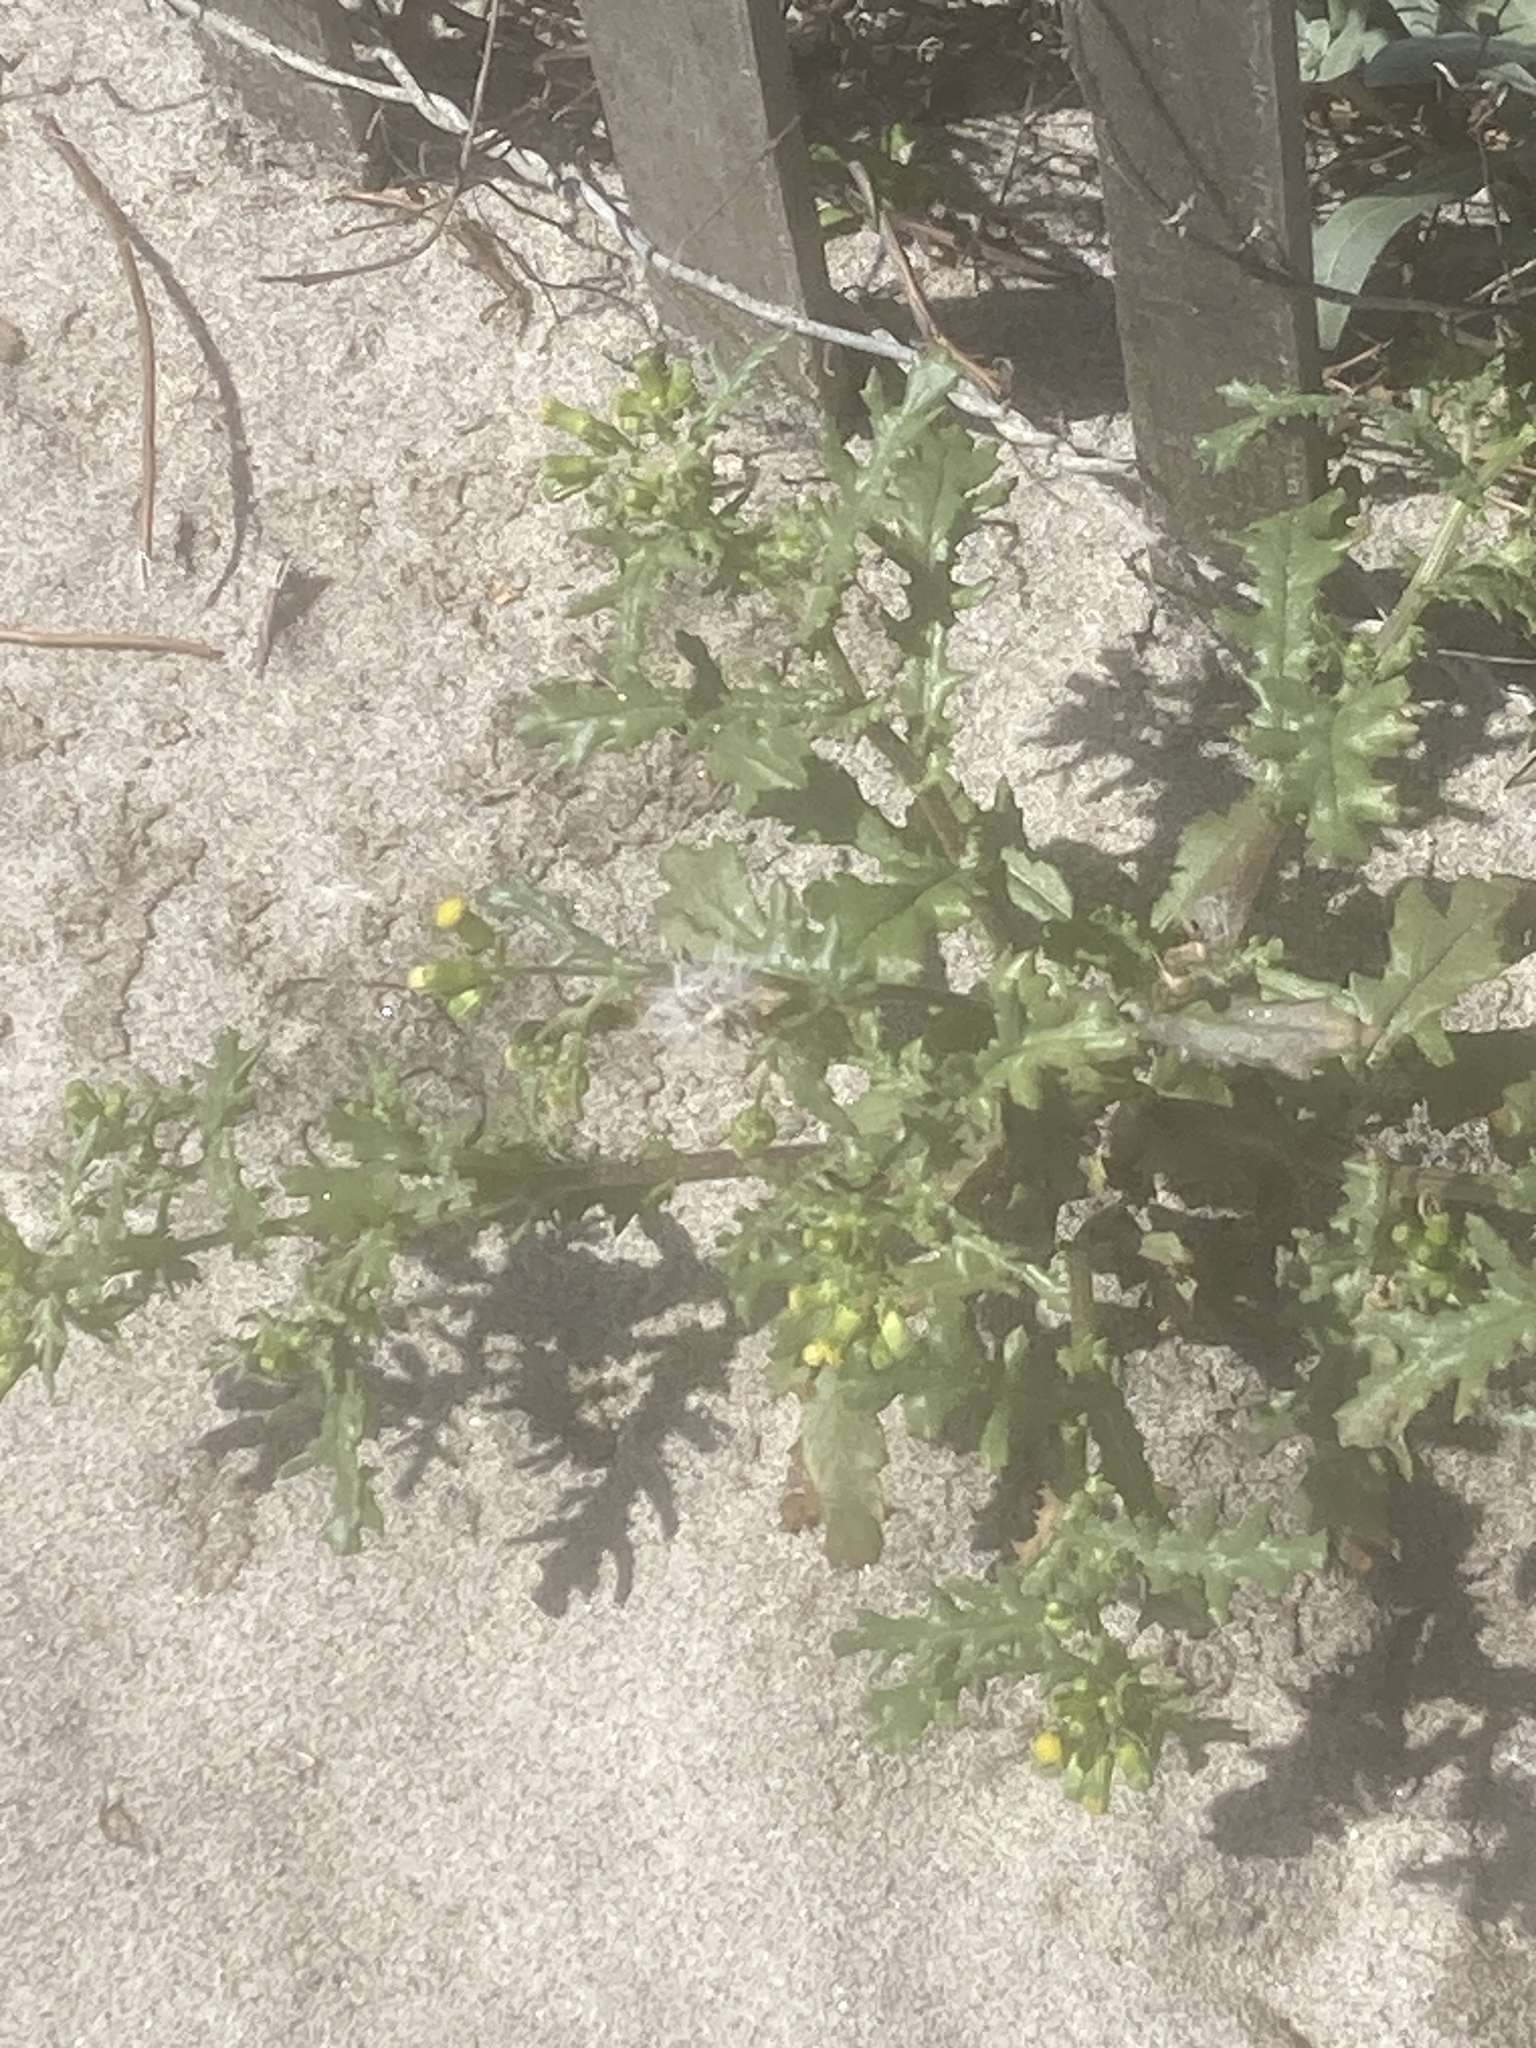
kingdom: Plantae
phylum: Tracheophyta
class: Magnoliopsida
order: Asterales
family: Asteraceae
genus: Senecio
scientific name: Senecio vulgaris
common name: Old-man-in-the-spring
